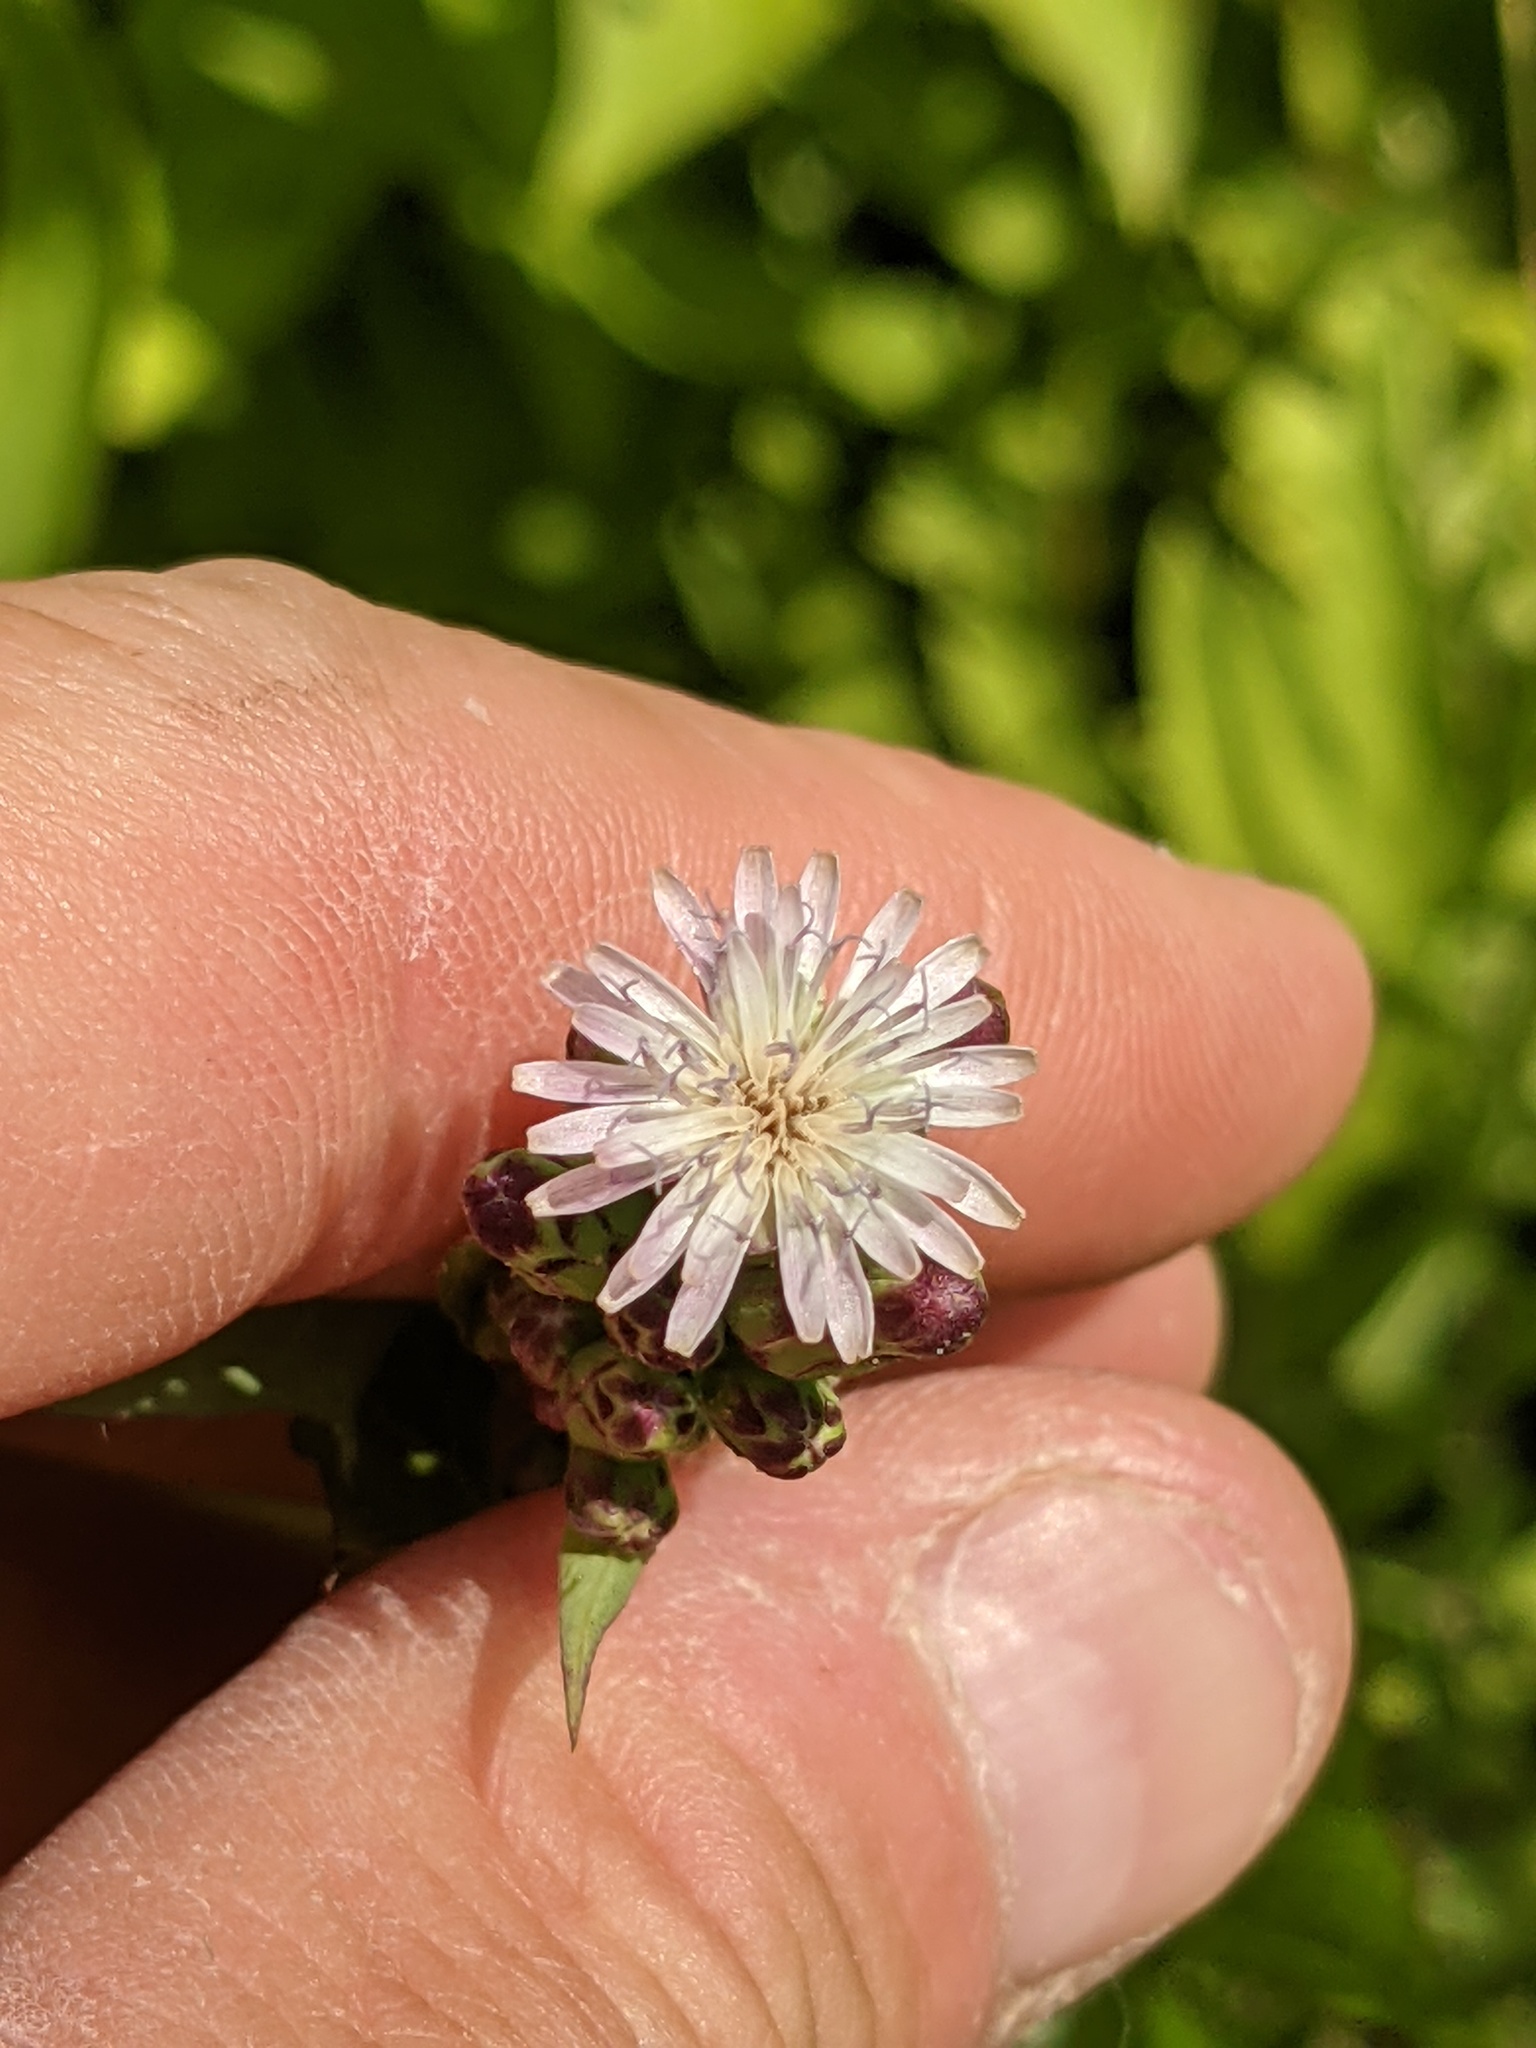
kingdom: Plantae
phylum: Tracheophyta
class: Magnoliopsida
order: Asterales
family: Asteraceae
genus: Lactuca
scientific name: Lactuca biennis
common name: Blue wood lettuce
